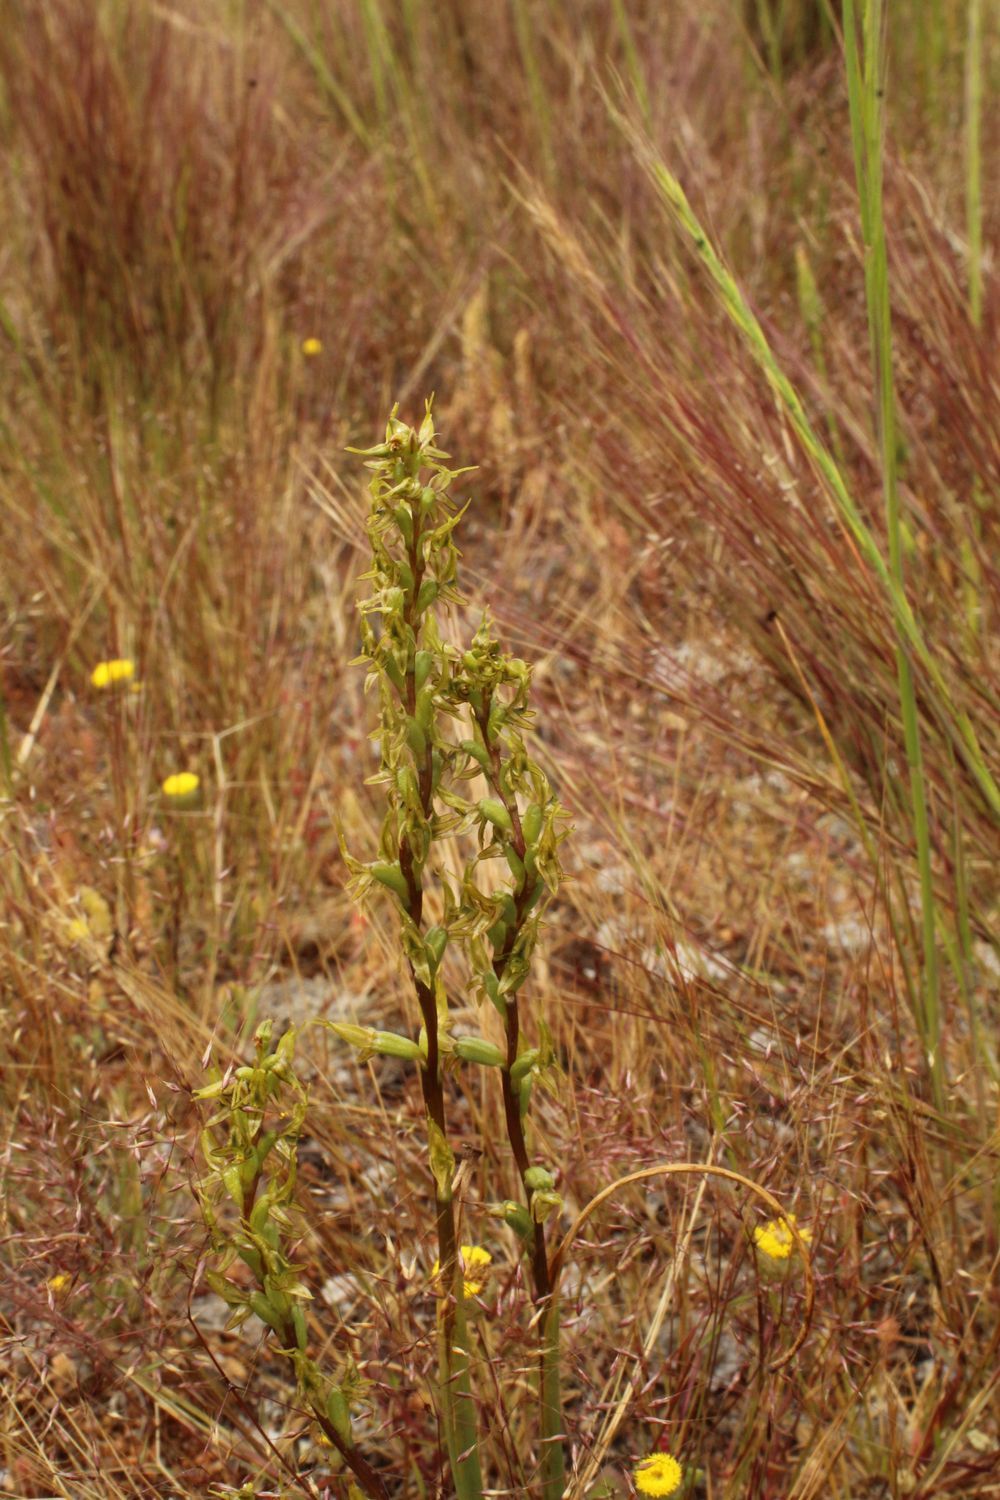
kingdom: Plantae
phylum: Tracheophyta
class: Liliopsida
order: Asparagales
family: Orchidaceae
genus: Prasophyllum
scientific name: Prasophyllum gracile
